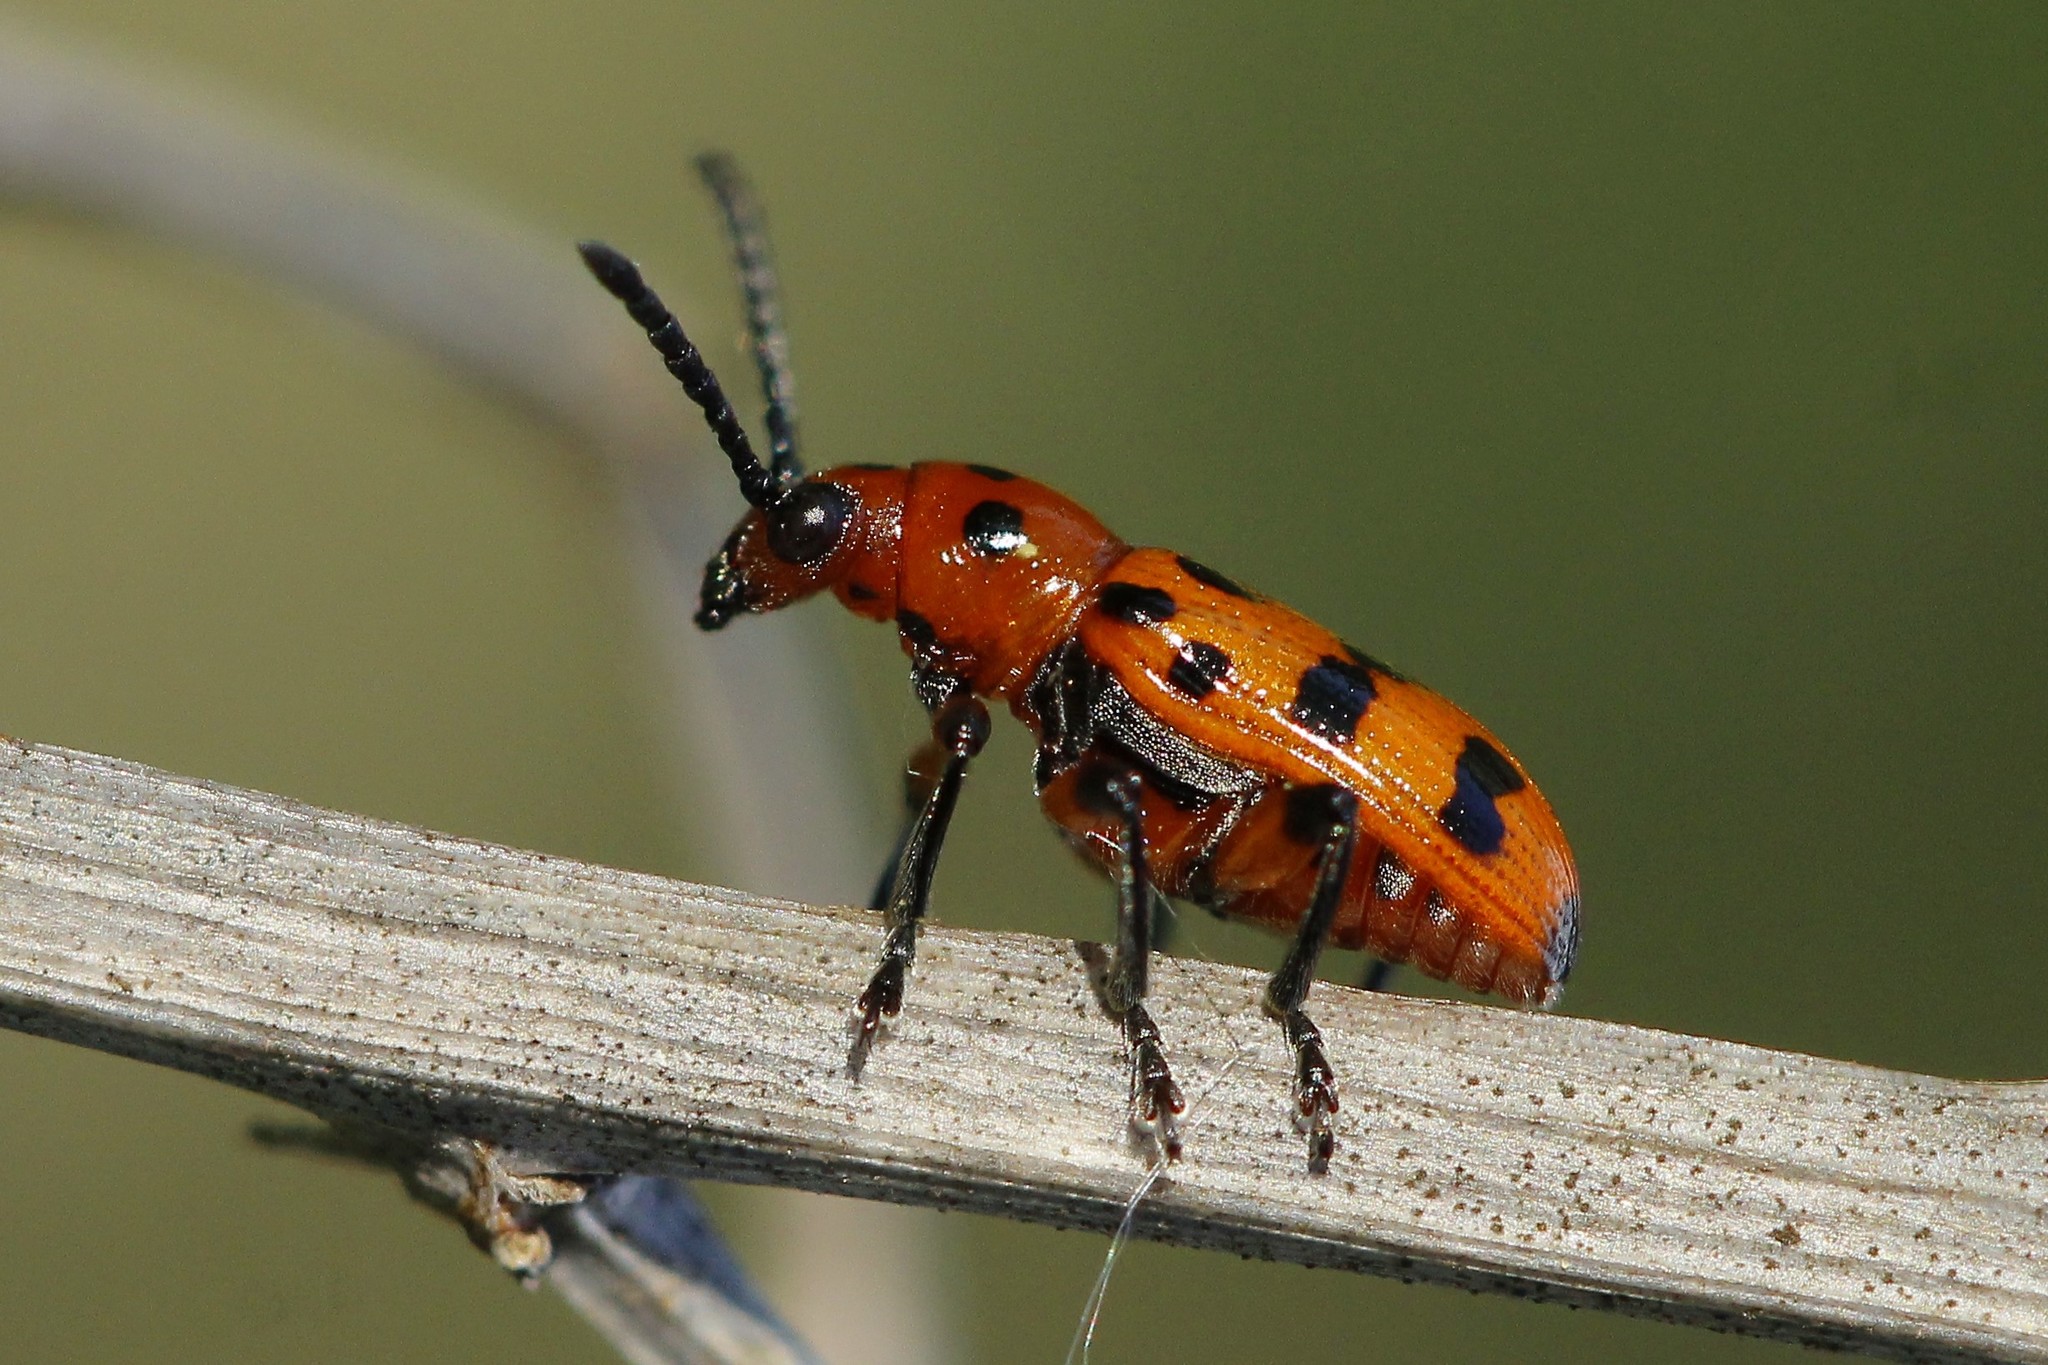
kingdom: Animalia
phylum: Arthropoda
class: Insecta
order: Coleoptera
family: Chrysomelidae
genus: Crioceris
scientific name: Crioceris quatuordecimpunctata
